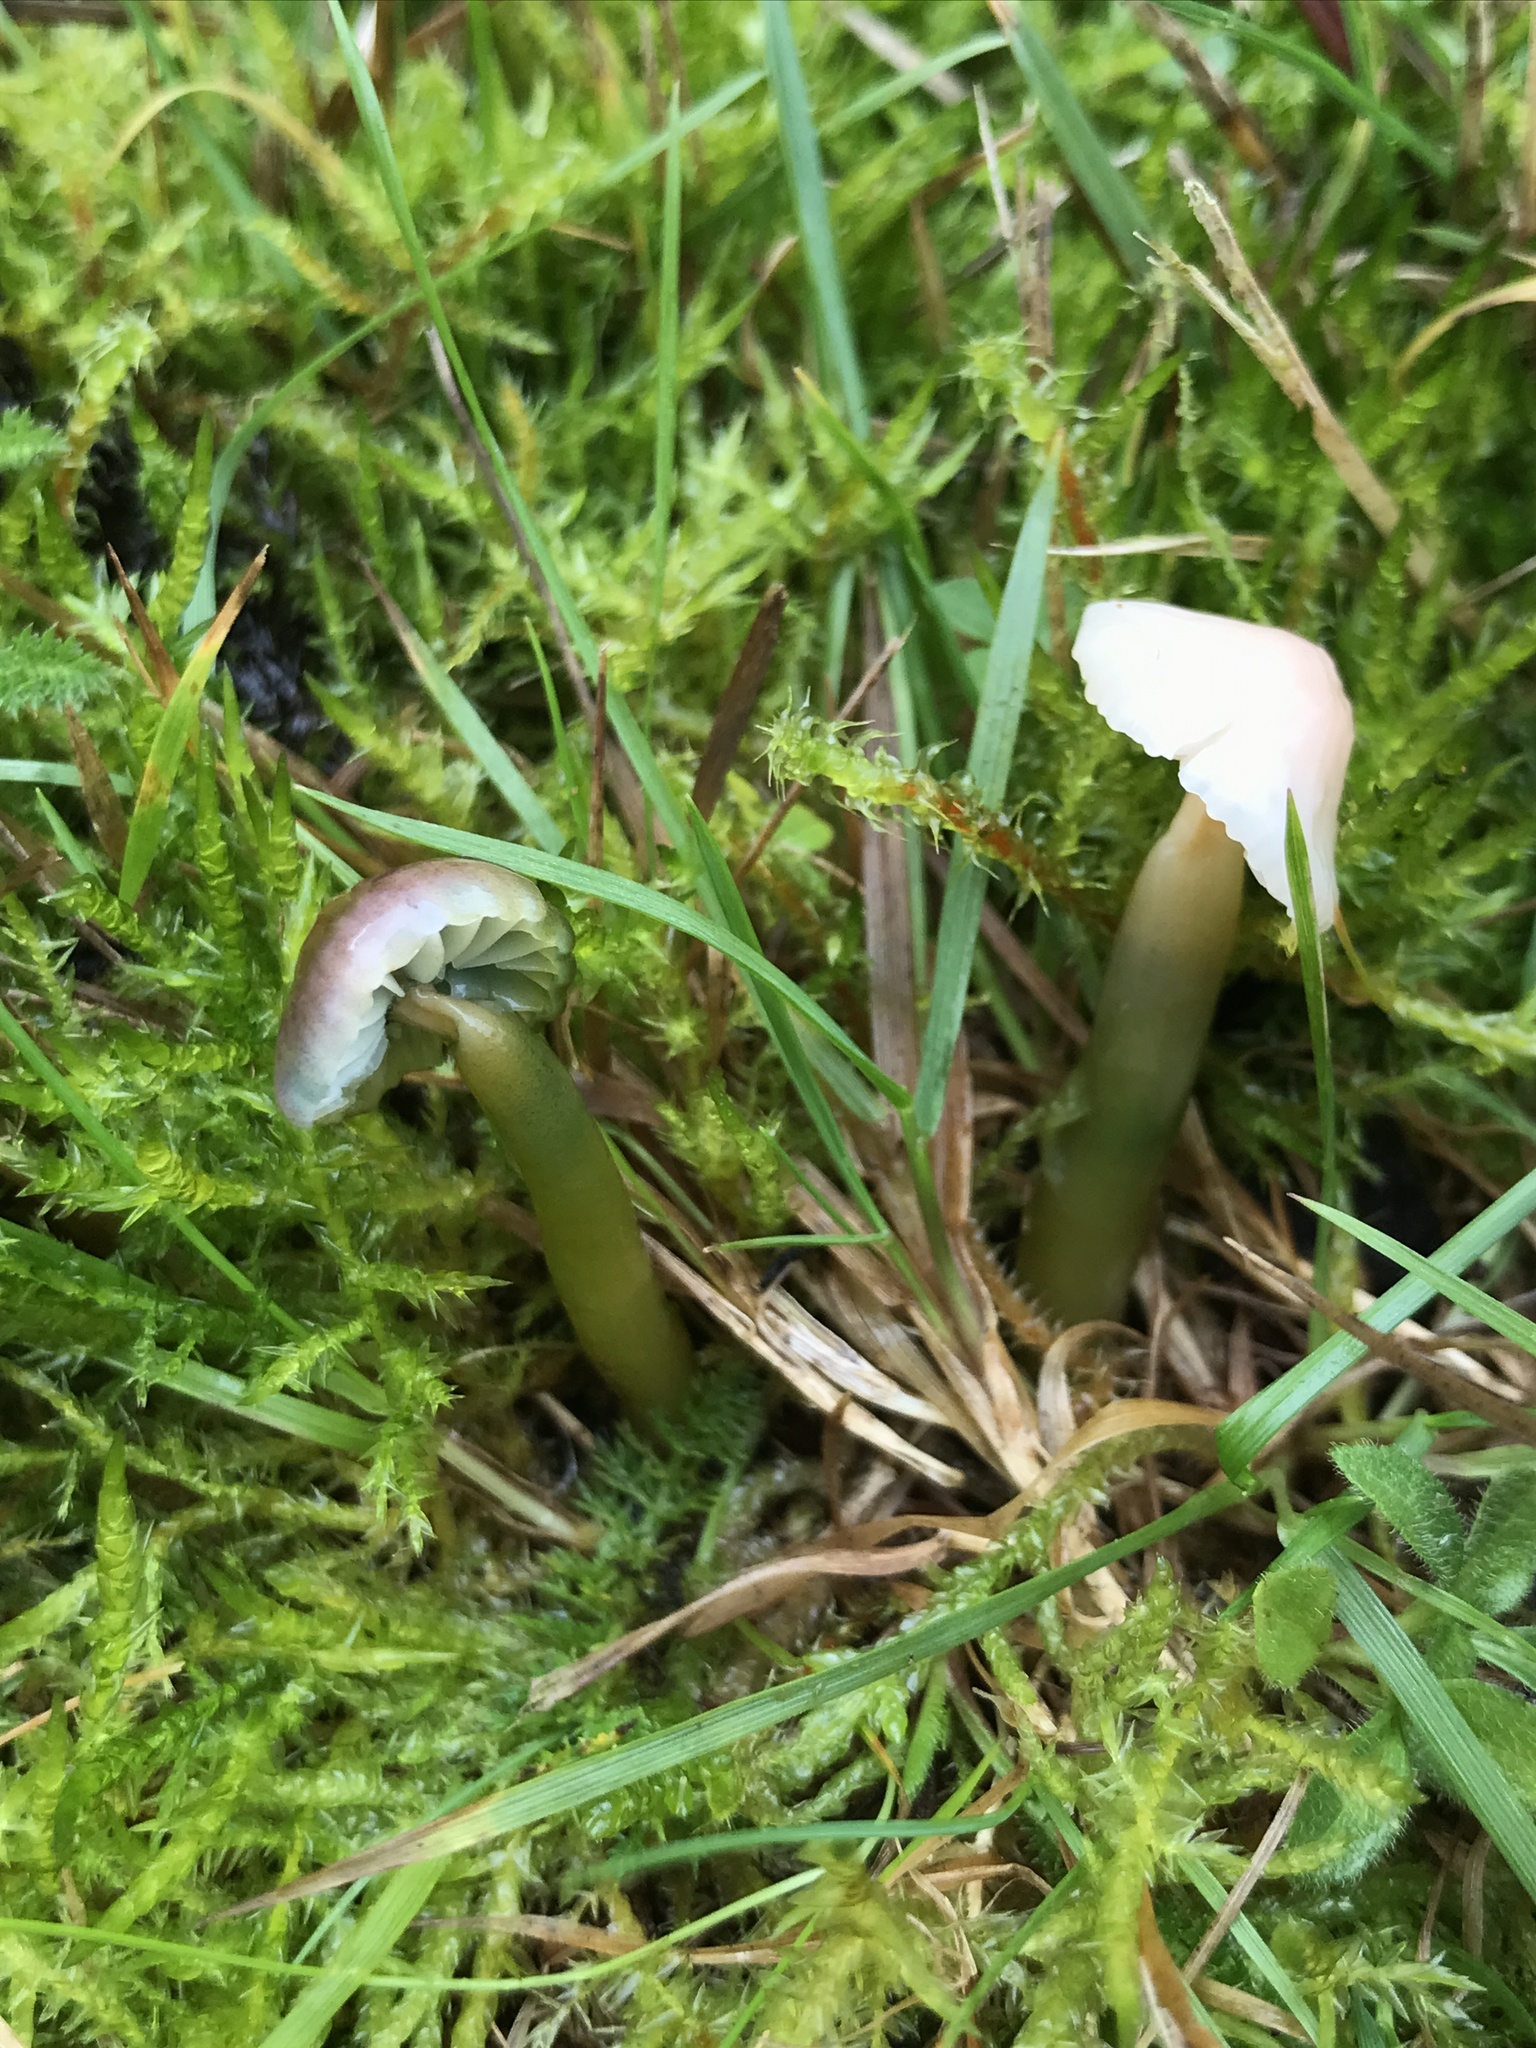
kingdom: Fungi
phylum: Basidiomycota
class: Agaricomycetes
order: Agaricales
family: Hygrophoraceae
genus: Gliophorus
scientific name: Gliophorus psittacinus
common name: Parrot wax-cap
